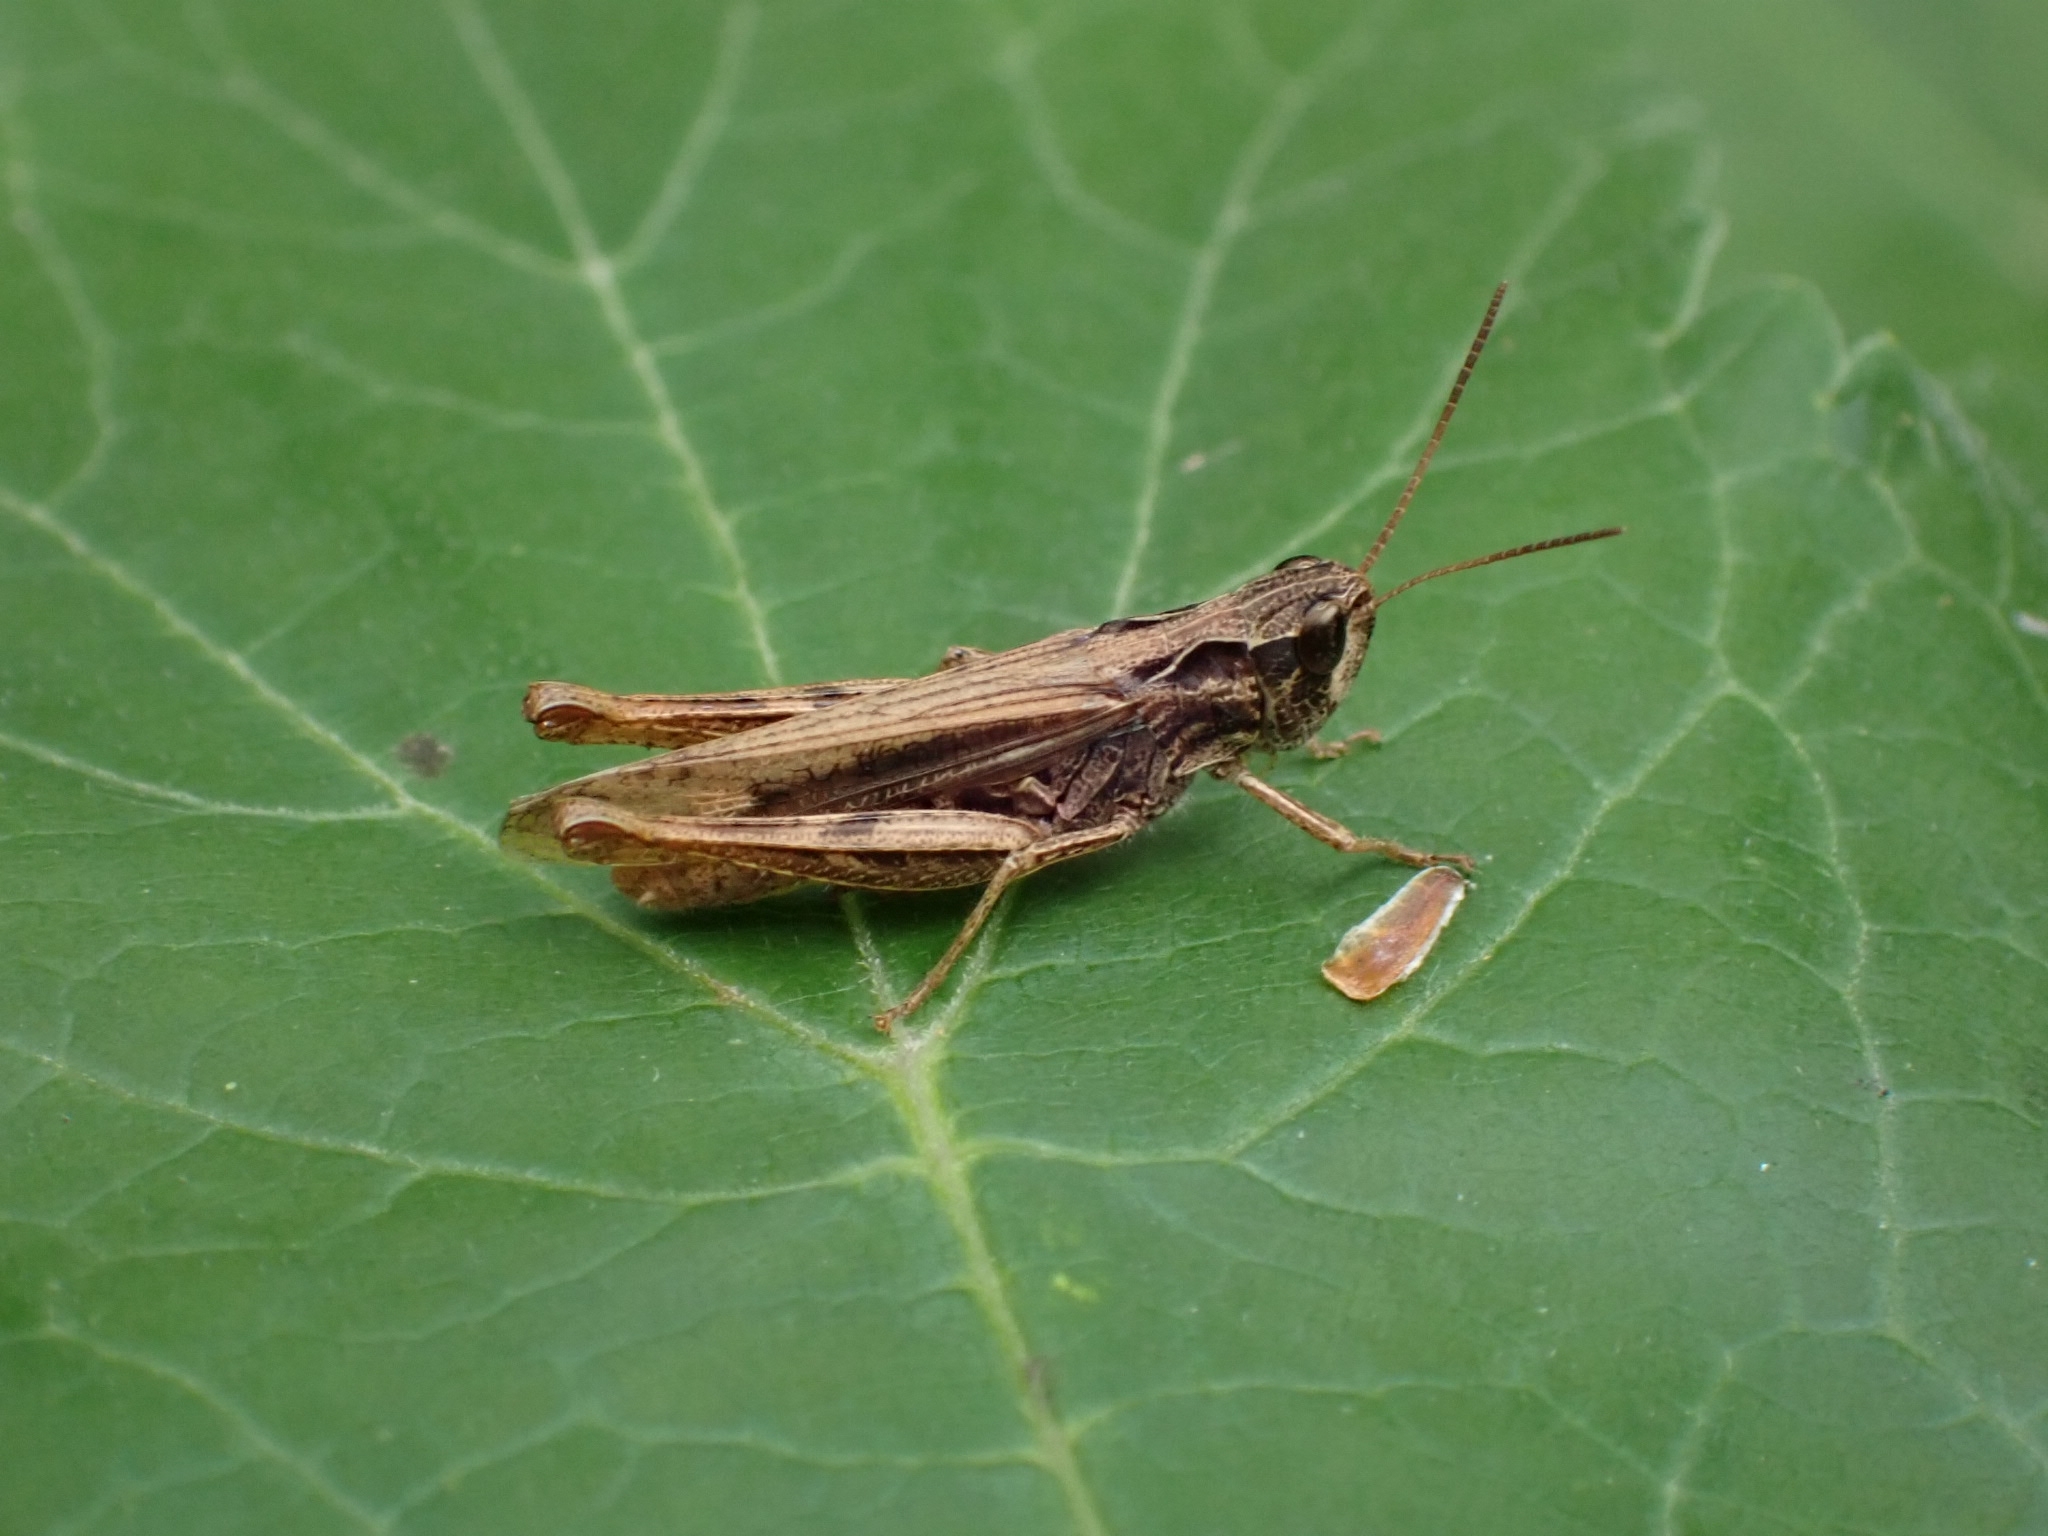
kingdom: Animalia
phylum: Arthropoda
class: Insecta
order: Orthoptera
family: Acrididae
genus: Chorthippus
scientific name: Chorthippus apricarius
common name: Upland field grasshopper
